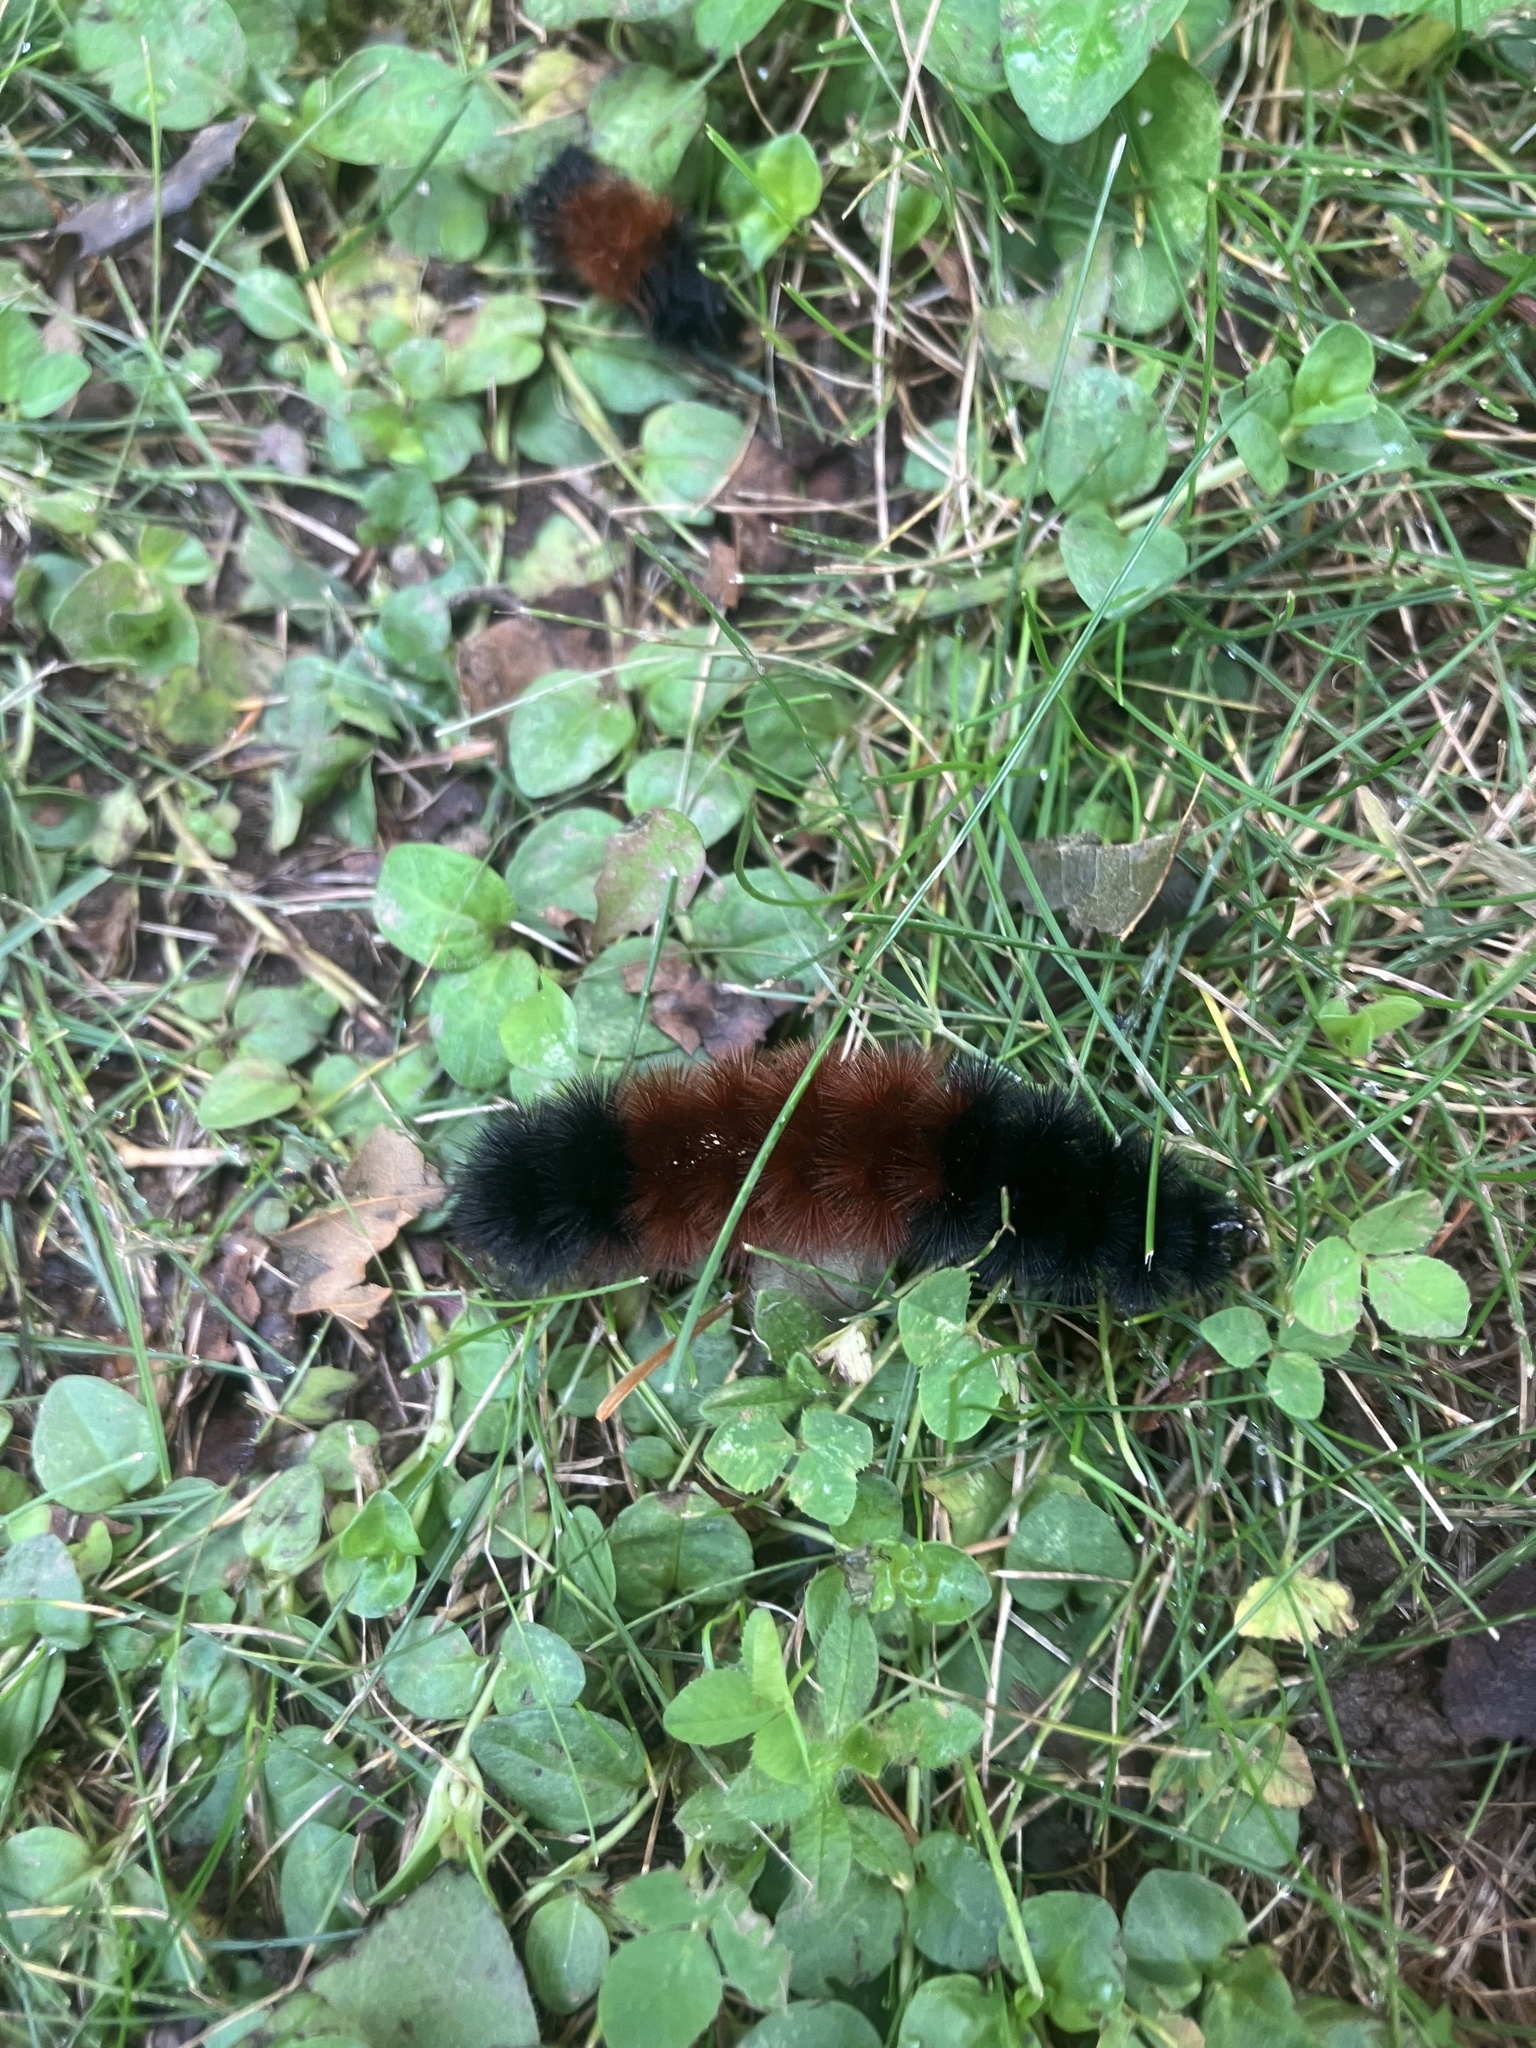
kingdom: Animalia
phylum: Arthropoda
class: Insecta
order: Lepidoptera
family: Erebidae
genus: Pyrrharctia
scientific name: Pyrrharctia isabella
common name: Isabella tiger moth
